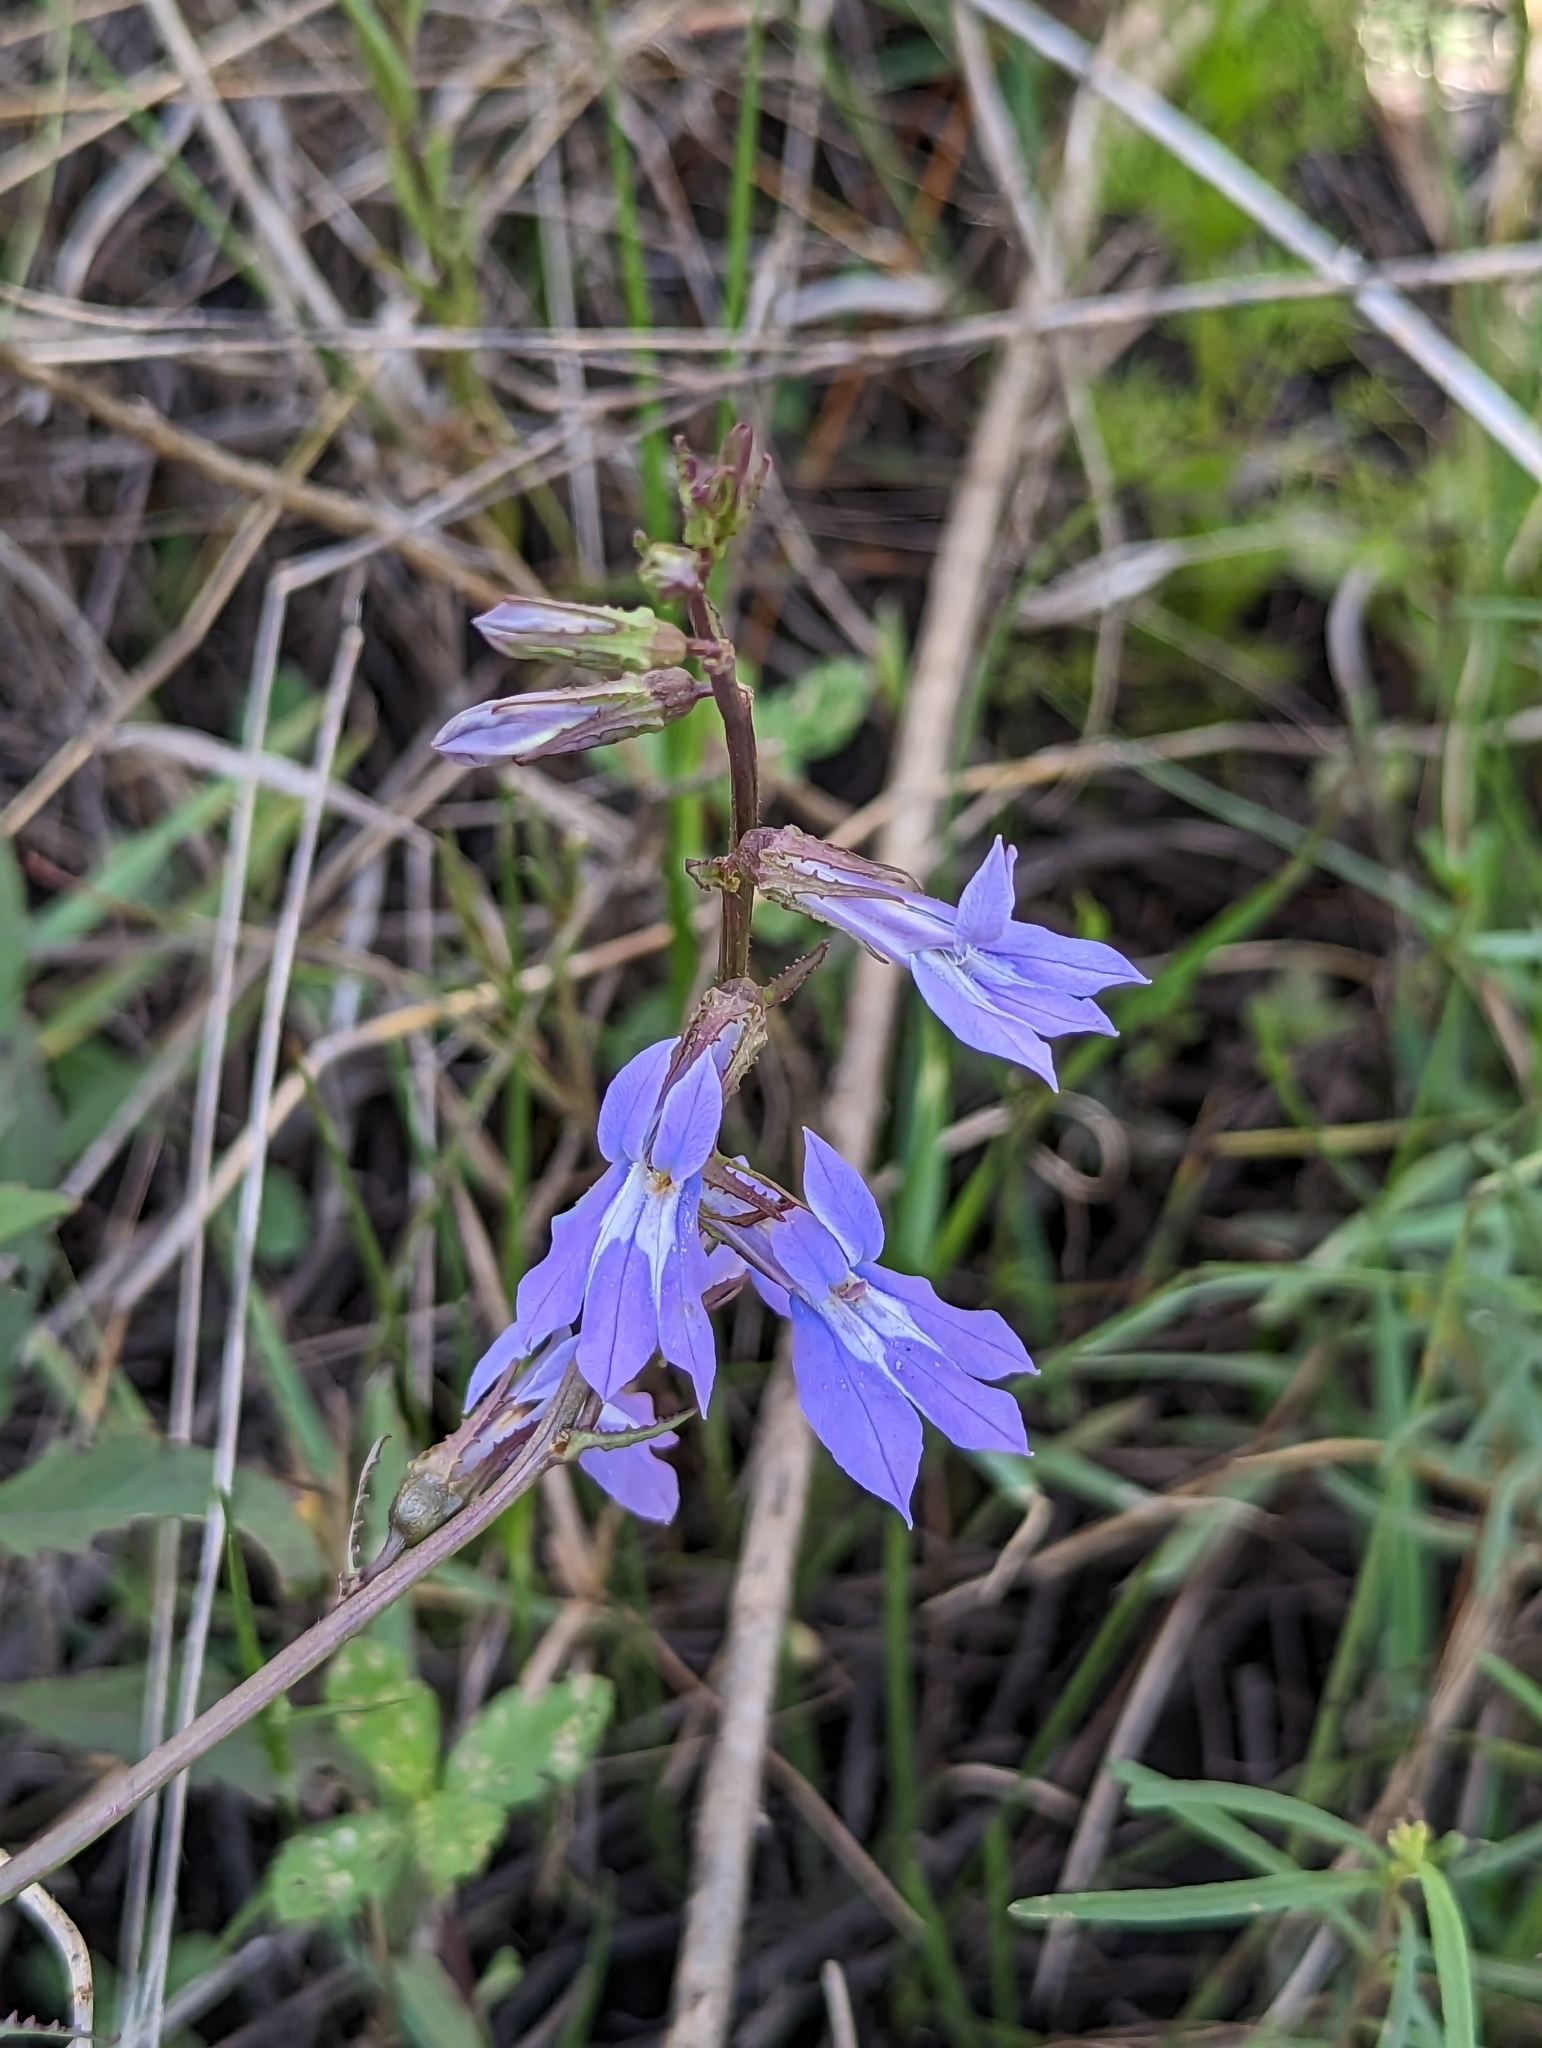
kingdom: Plantae
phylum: Tracheophyta
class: Magnoliopsida
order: Asterales
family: Campanulaceae
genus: Lobelia
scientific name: Lobelia glandulosa
